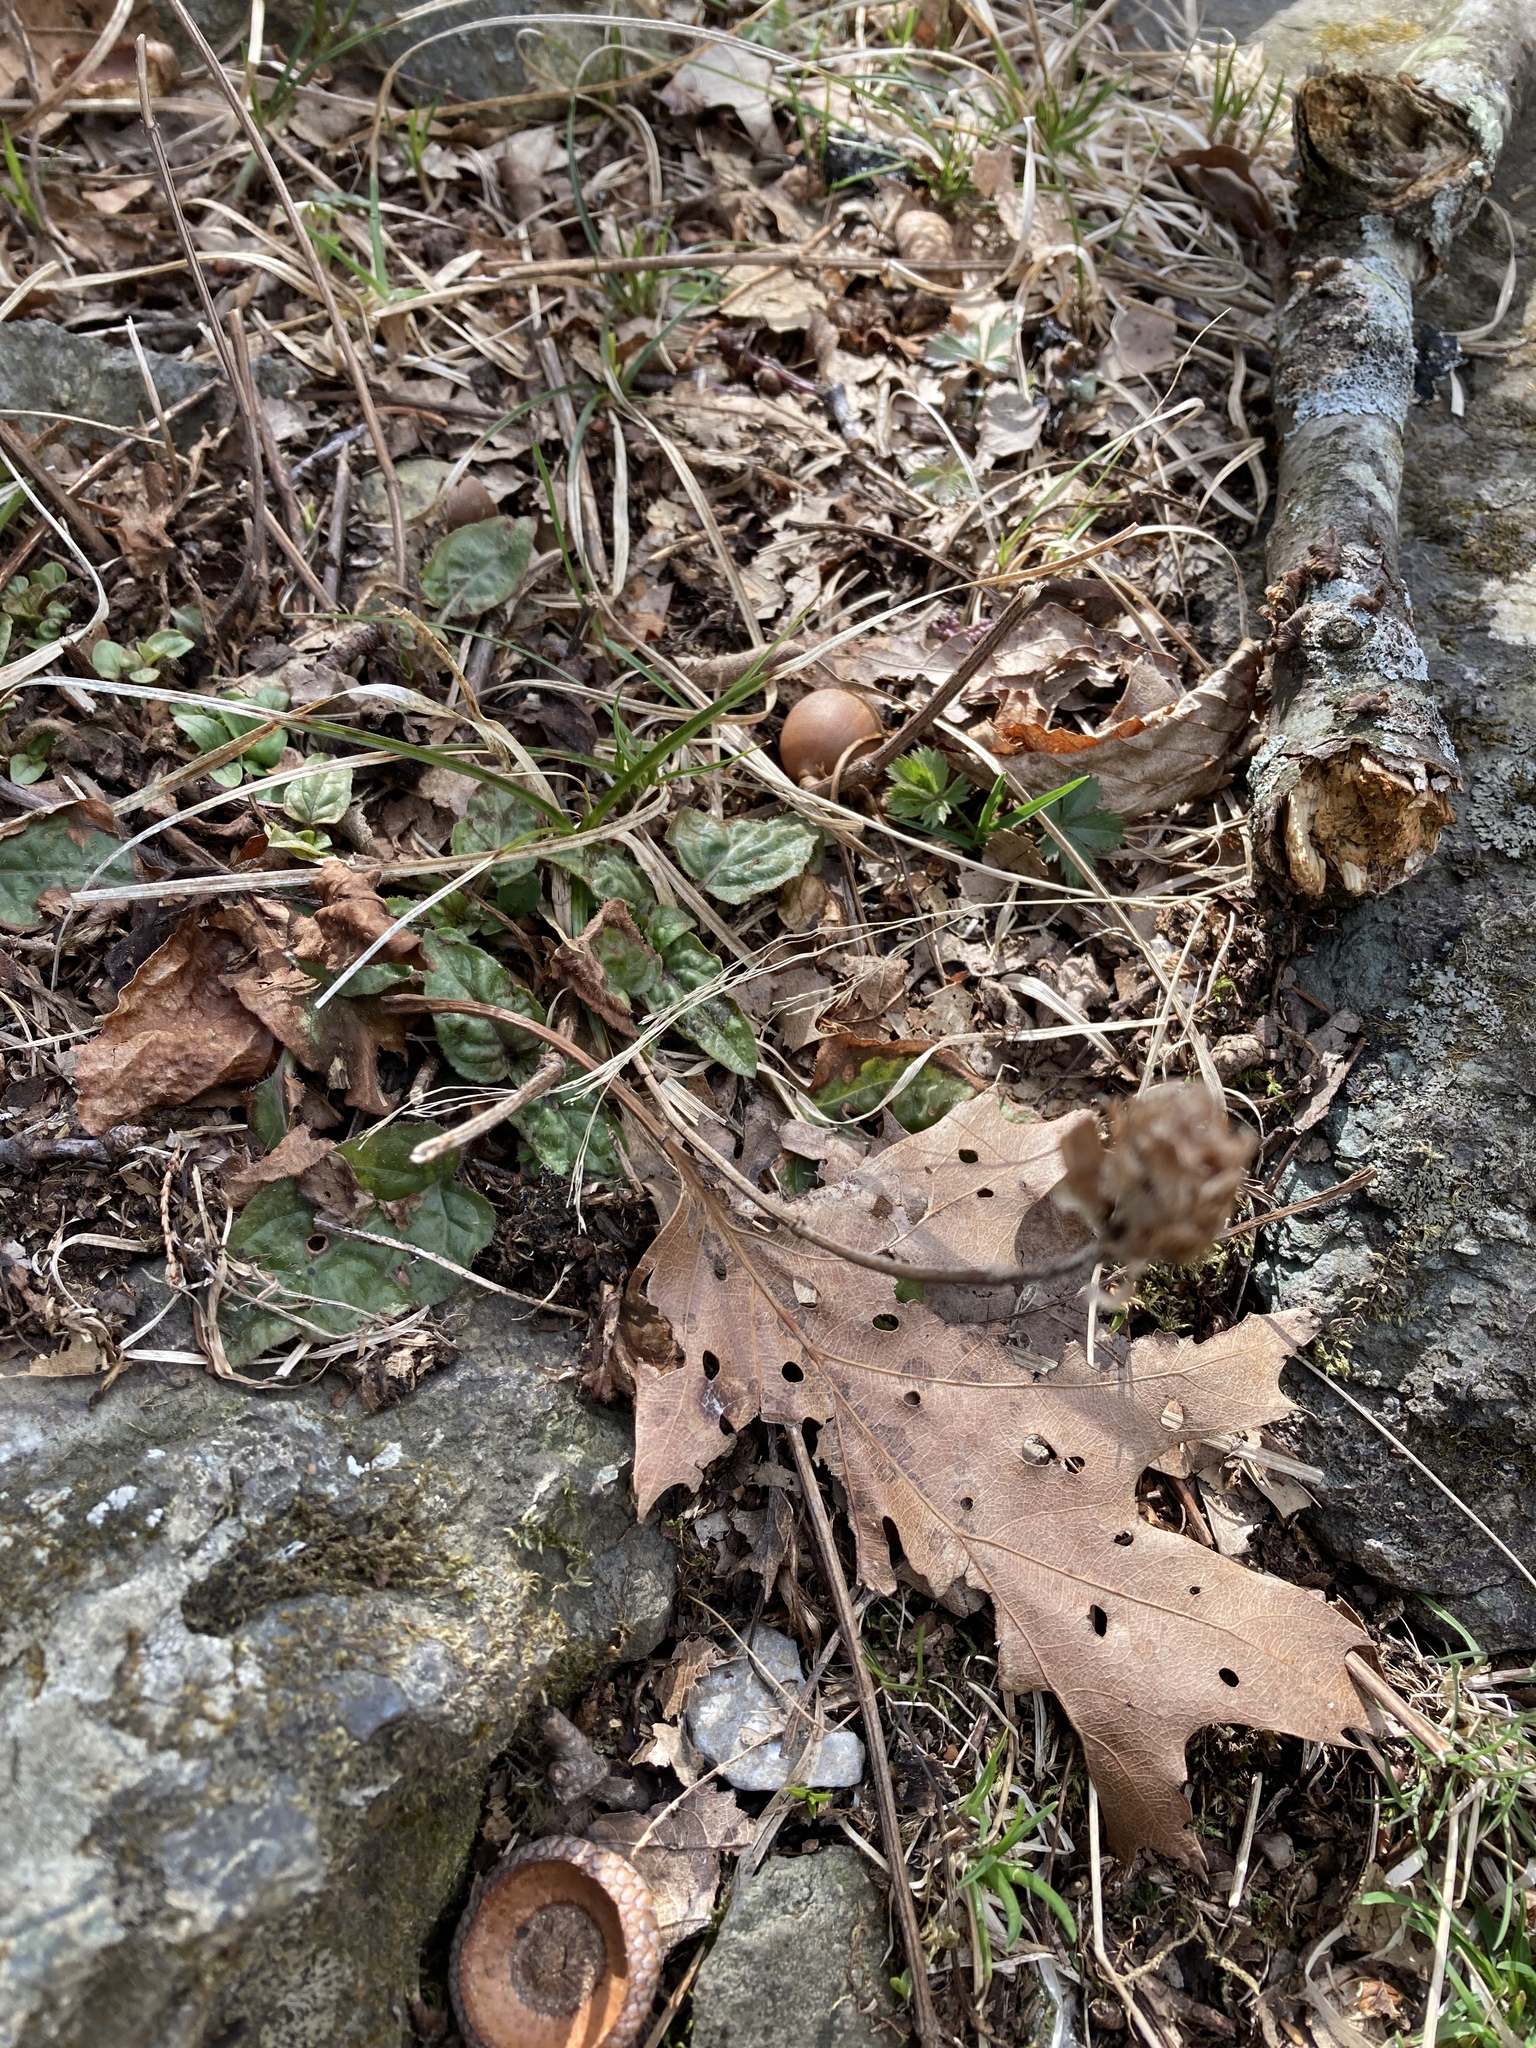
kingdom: Plantae
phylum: Tracheophyta
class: Magnoliopsida
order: Lamiales
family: Lamiaceae
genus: Prunella
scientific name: Prunella vulgaris
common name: Heal-all
